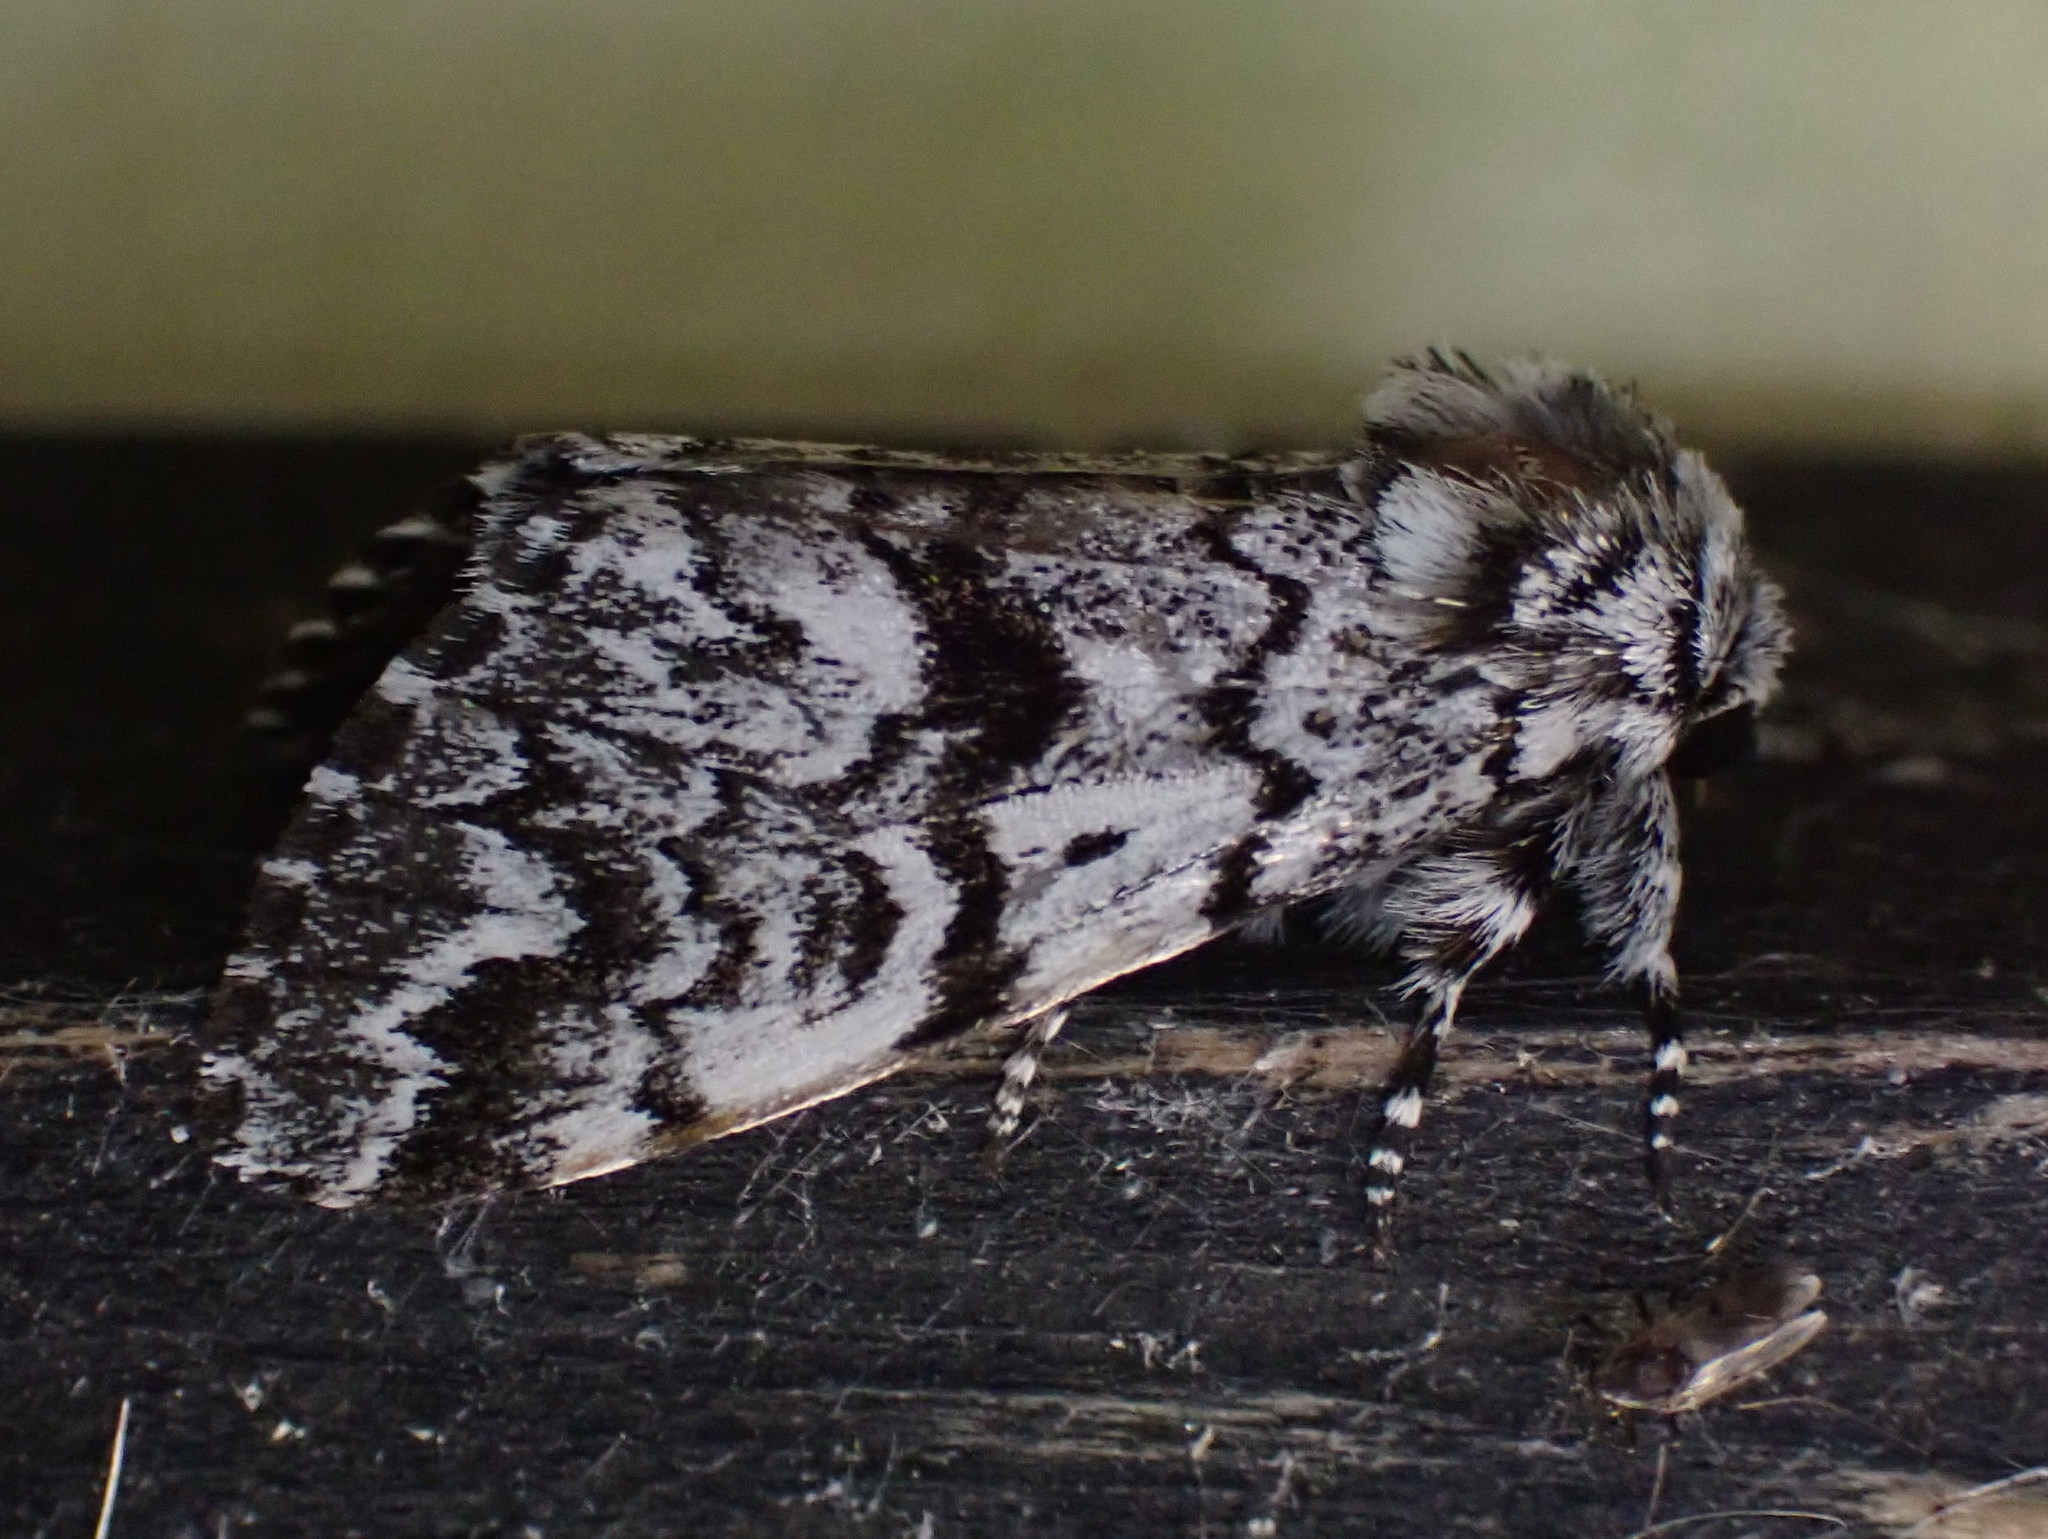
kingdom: Animalia
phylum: Arthropoda
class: Insecta
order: Lepidoptera
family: Noctuidae
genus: Panthea
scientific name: Panthea acronyctoides
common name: Black zigzag moth
